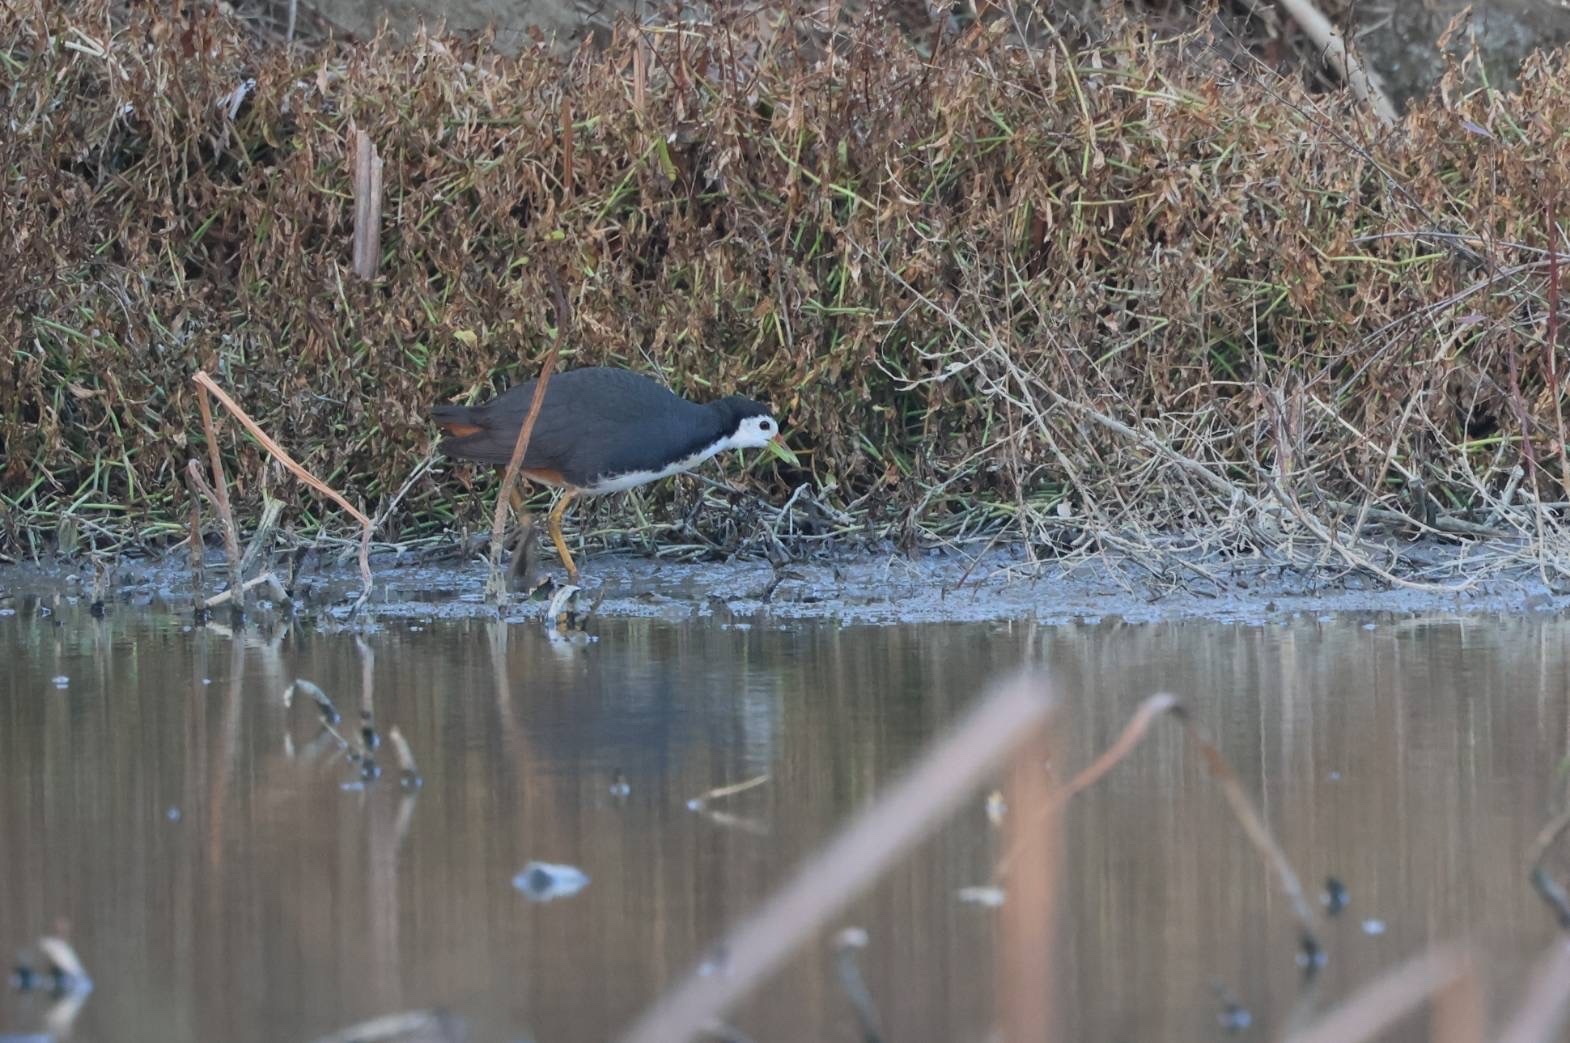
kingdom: Animalia
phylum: Chordata
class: Aves
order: Gruiformes
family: Rallidae
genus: Amaurornis
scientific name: Amaurornis phoenicurus
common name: White-breasted waterhen
